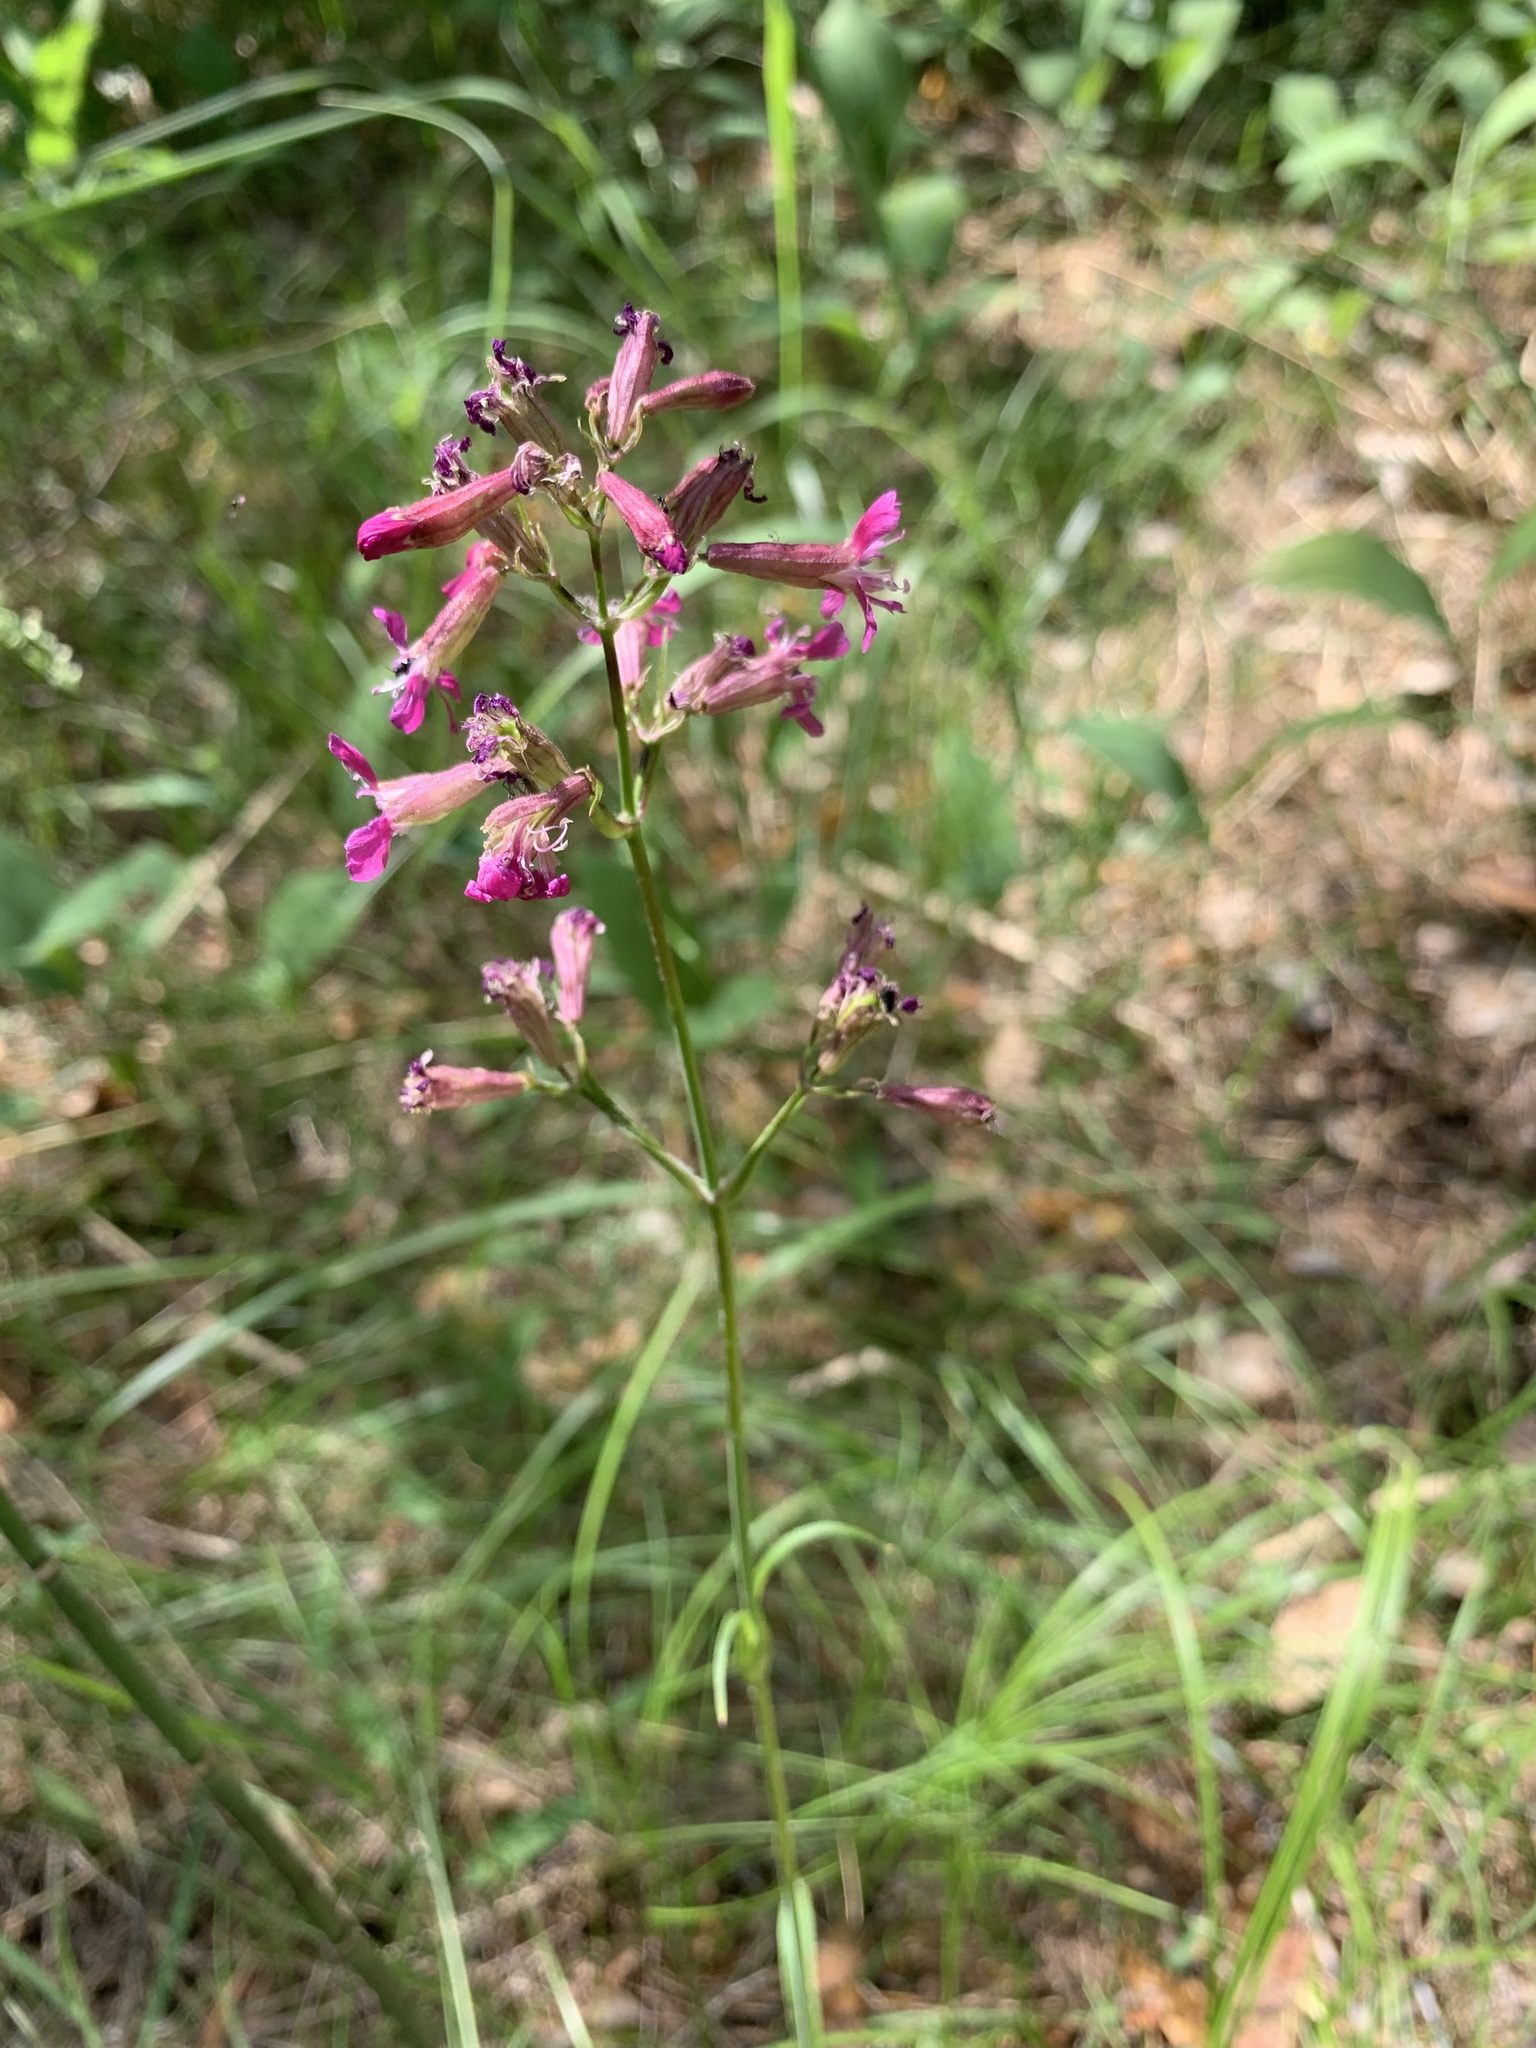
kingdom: Plantae
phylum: Tracheophyta
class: Magnoliopsida
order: Caryophyllales
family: Caryophyllaceae
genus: Viscaria
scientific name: Viscaria vulgaris
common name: Clammy campion
